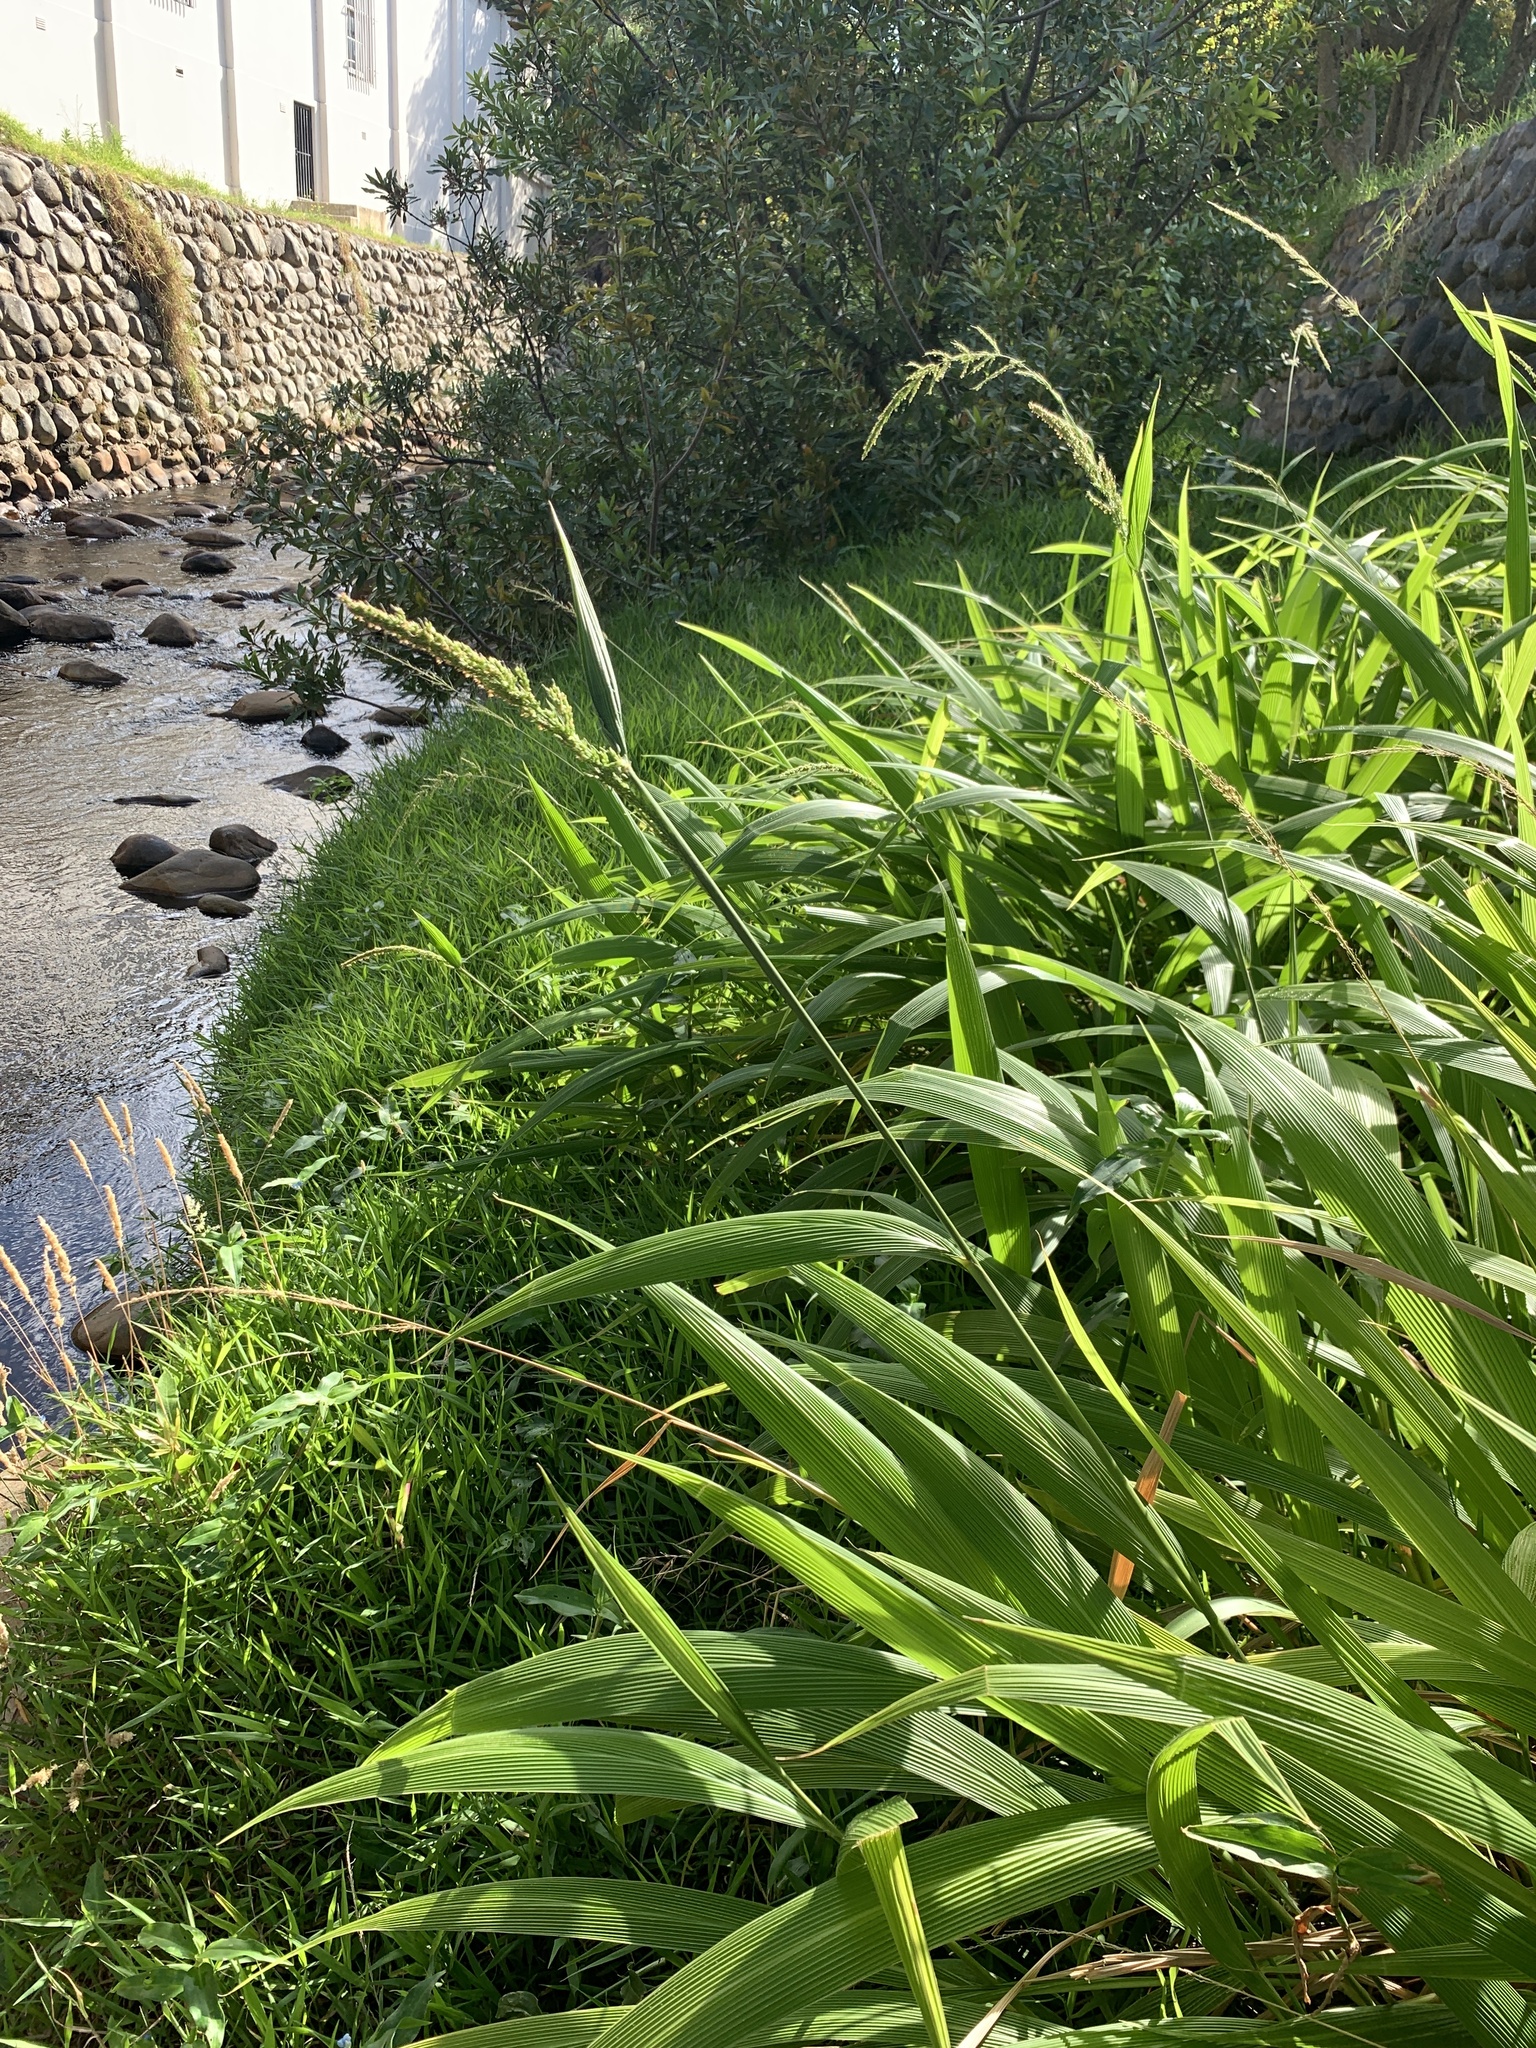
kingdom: Plantae
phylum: Tracheophyta
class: Liliopsida
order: Poales
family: Poaceae
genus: Setaria
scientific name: Setaria megaphylla
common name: Bigleaf bristlegrass
